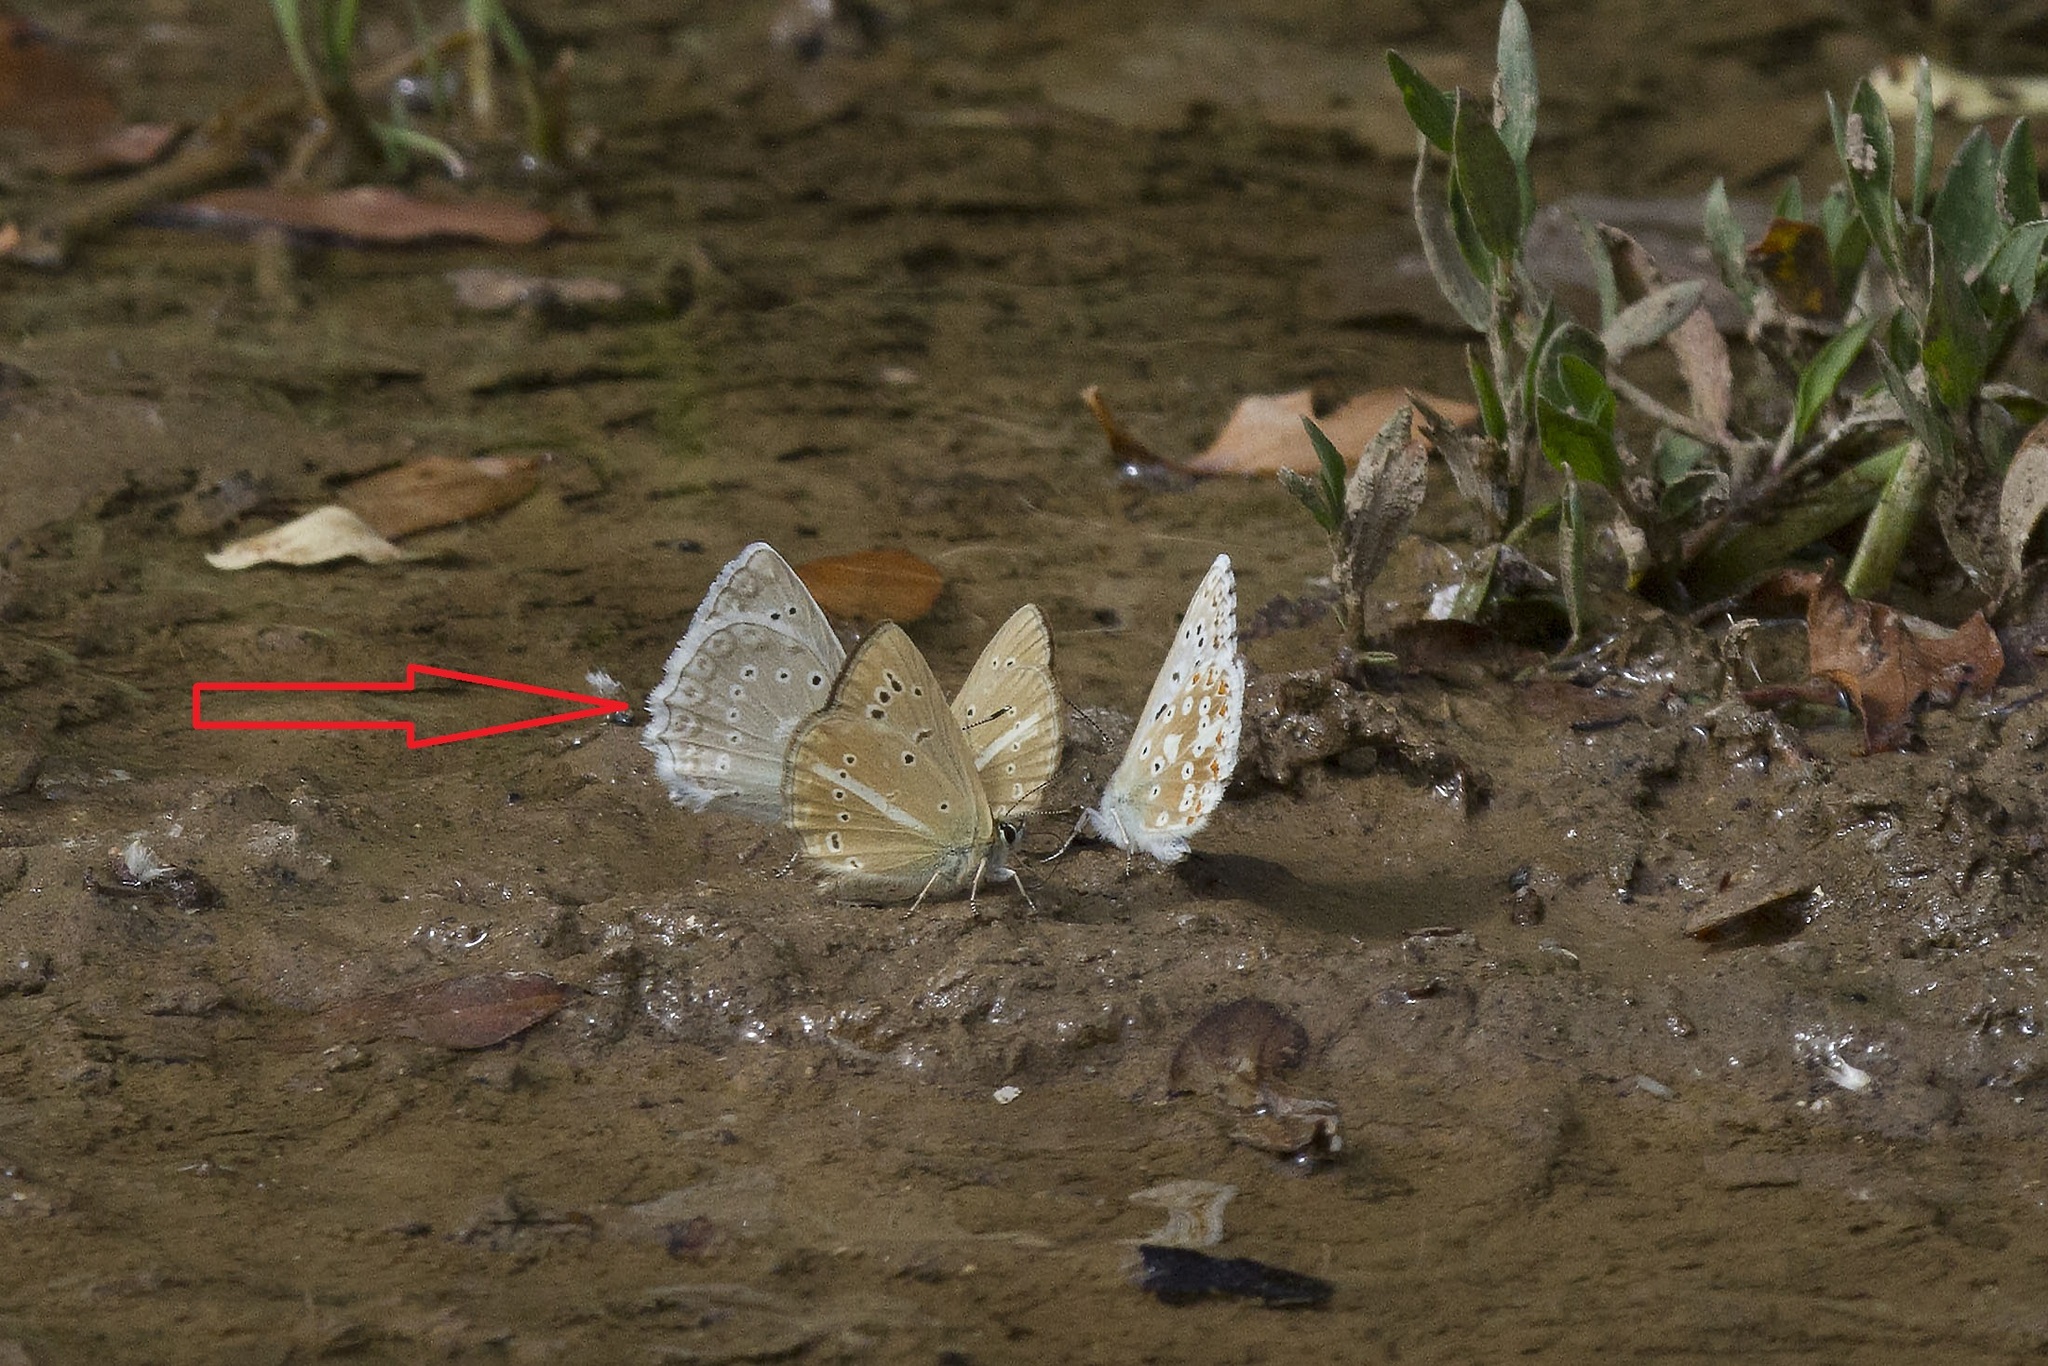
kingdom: Animalia
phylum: Arthropoda
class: Insecta
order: Lepidoptera
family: Lycaenidae
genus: Polyommatus
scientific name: Polyommatus daphnis
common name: Meleager's blue
